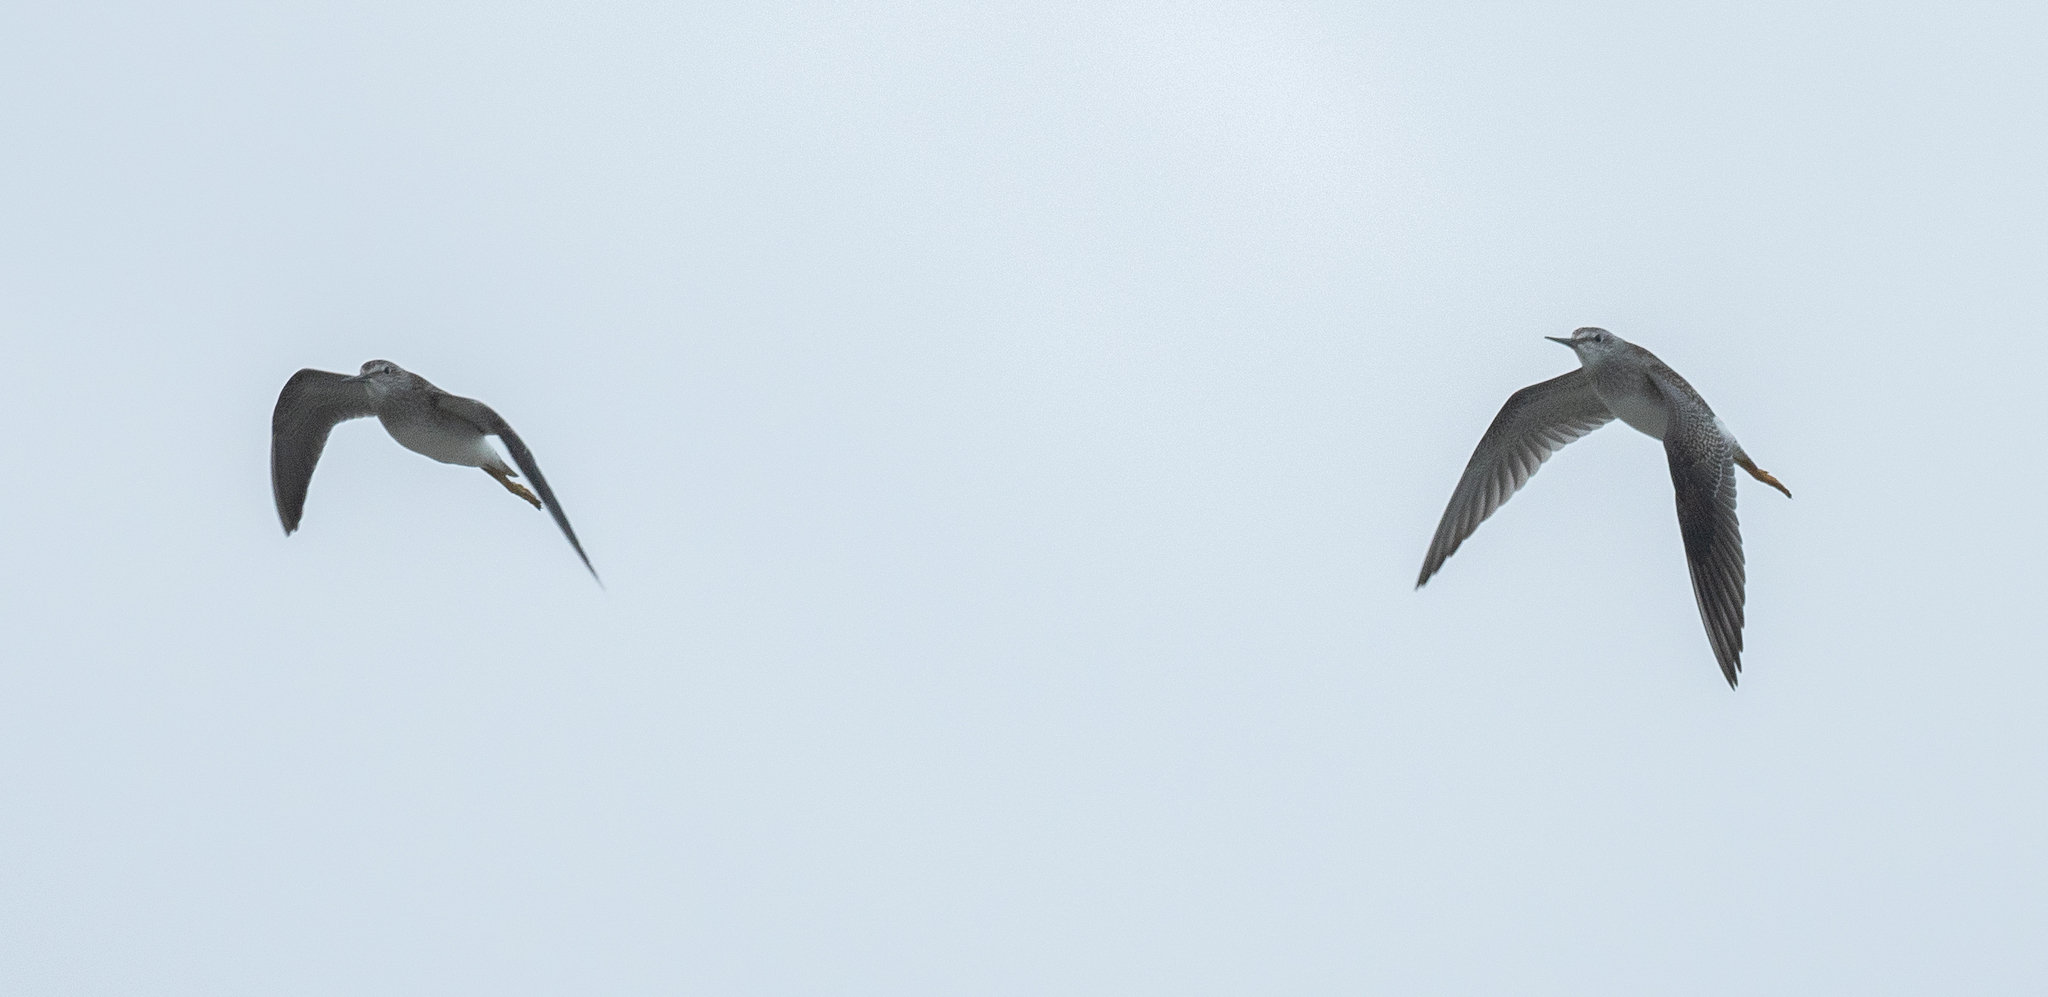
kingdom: Animalia
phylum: Chordata
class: Aves
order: Charadriiformes
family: Scolopacidae
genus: Tringa
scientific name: Tringa flavipes
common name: Lesser yellowlegs
